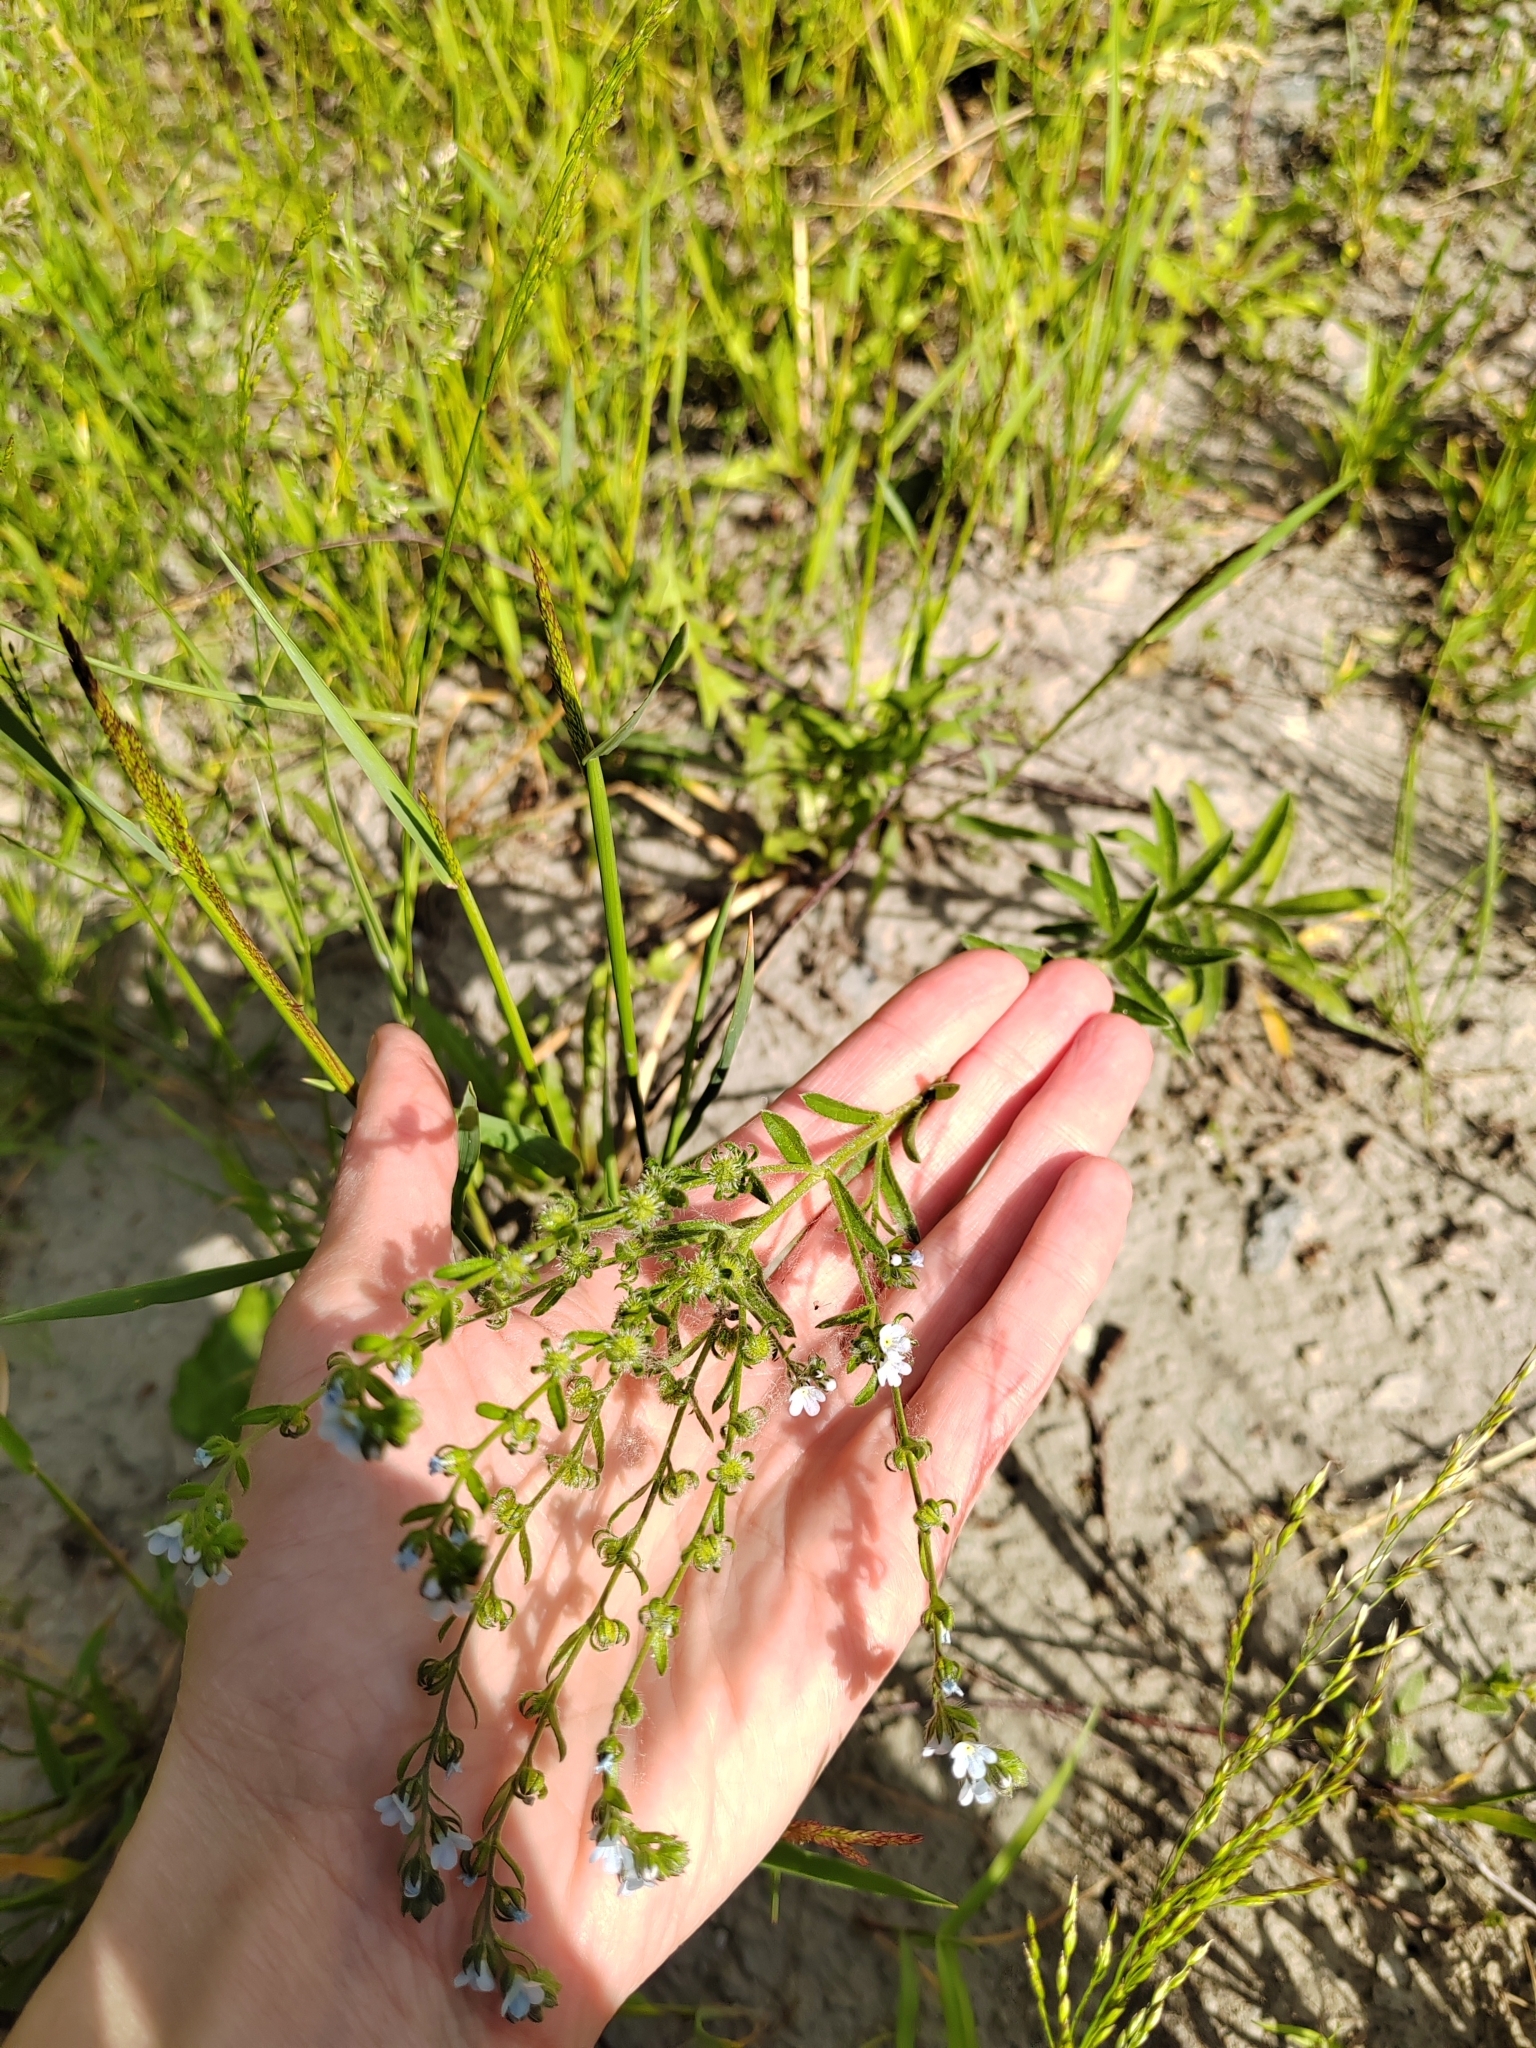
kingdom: Plantae
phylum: Tracheophyta
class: Magnoliopsida
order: Boraginales
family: Boraginaceae
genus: Lappula
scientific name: Lappula squarrosa
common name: European stickseed
